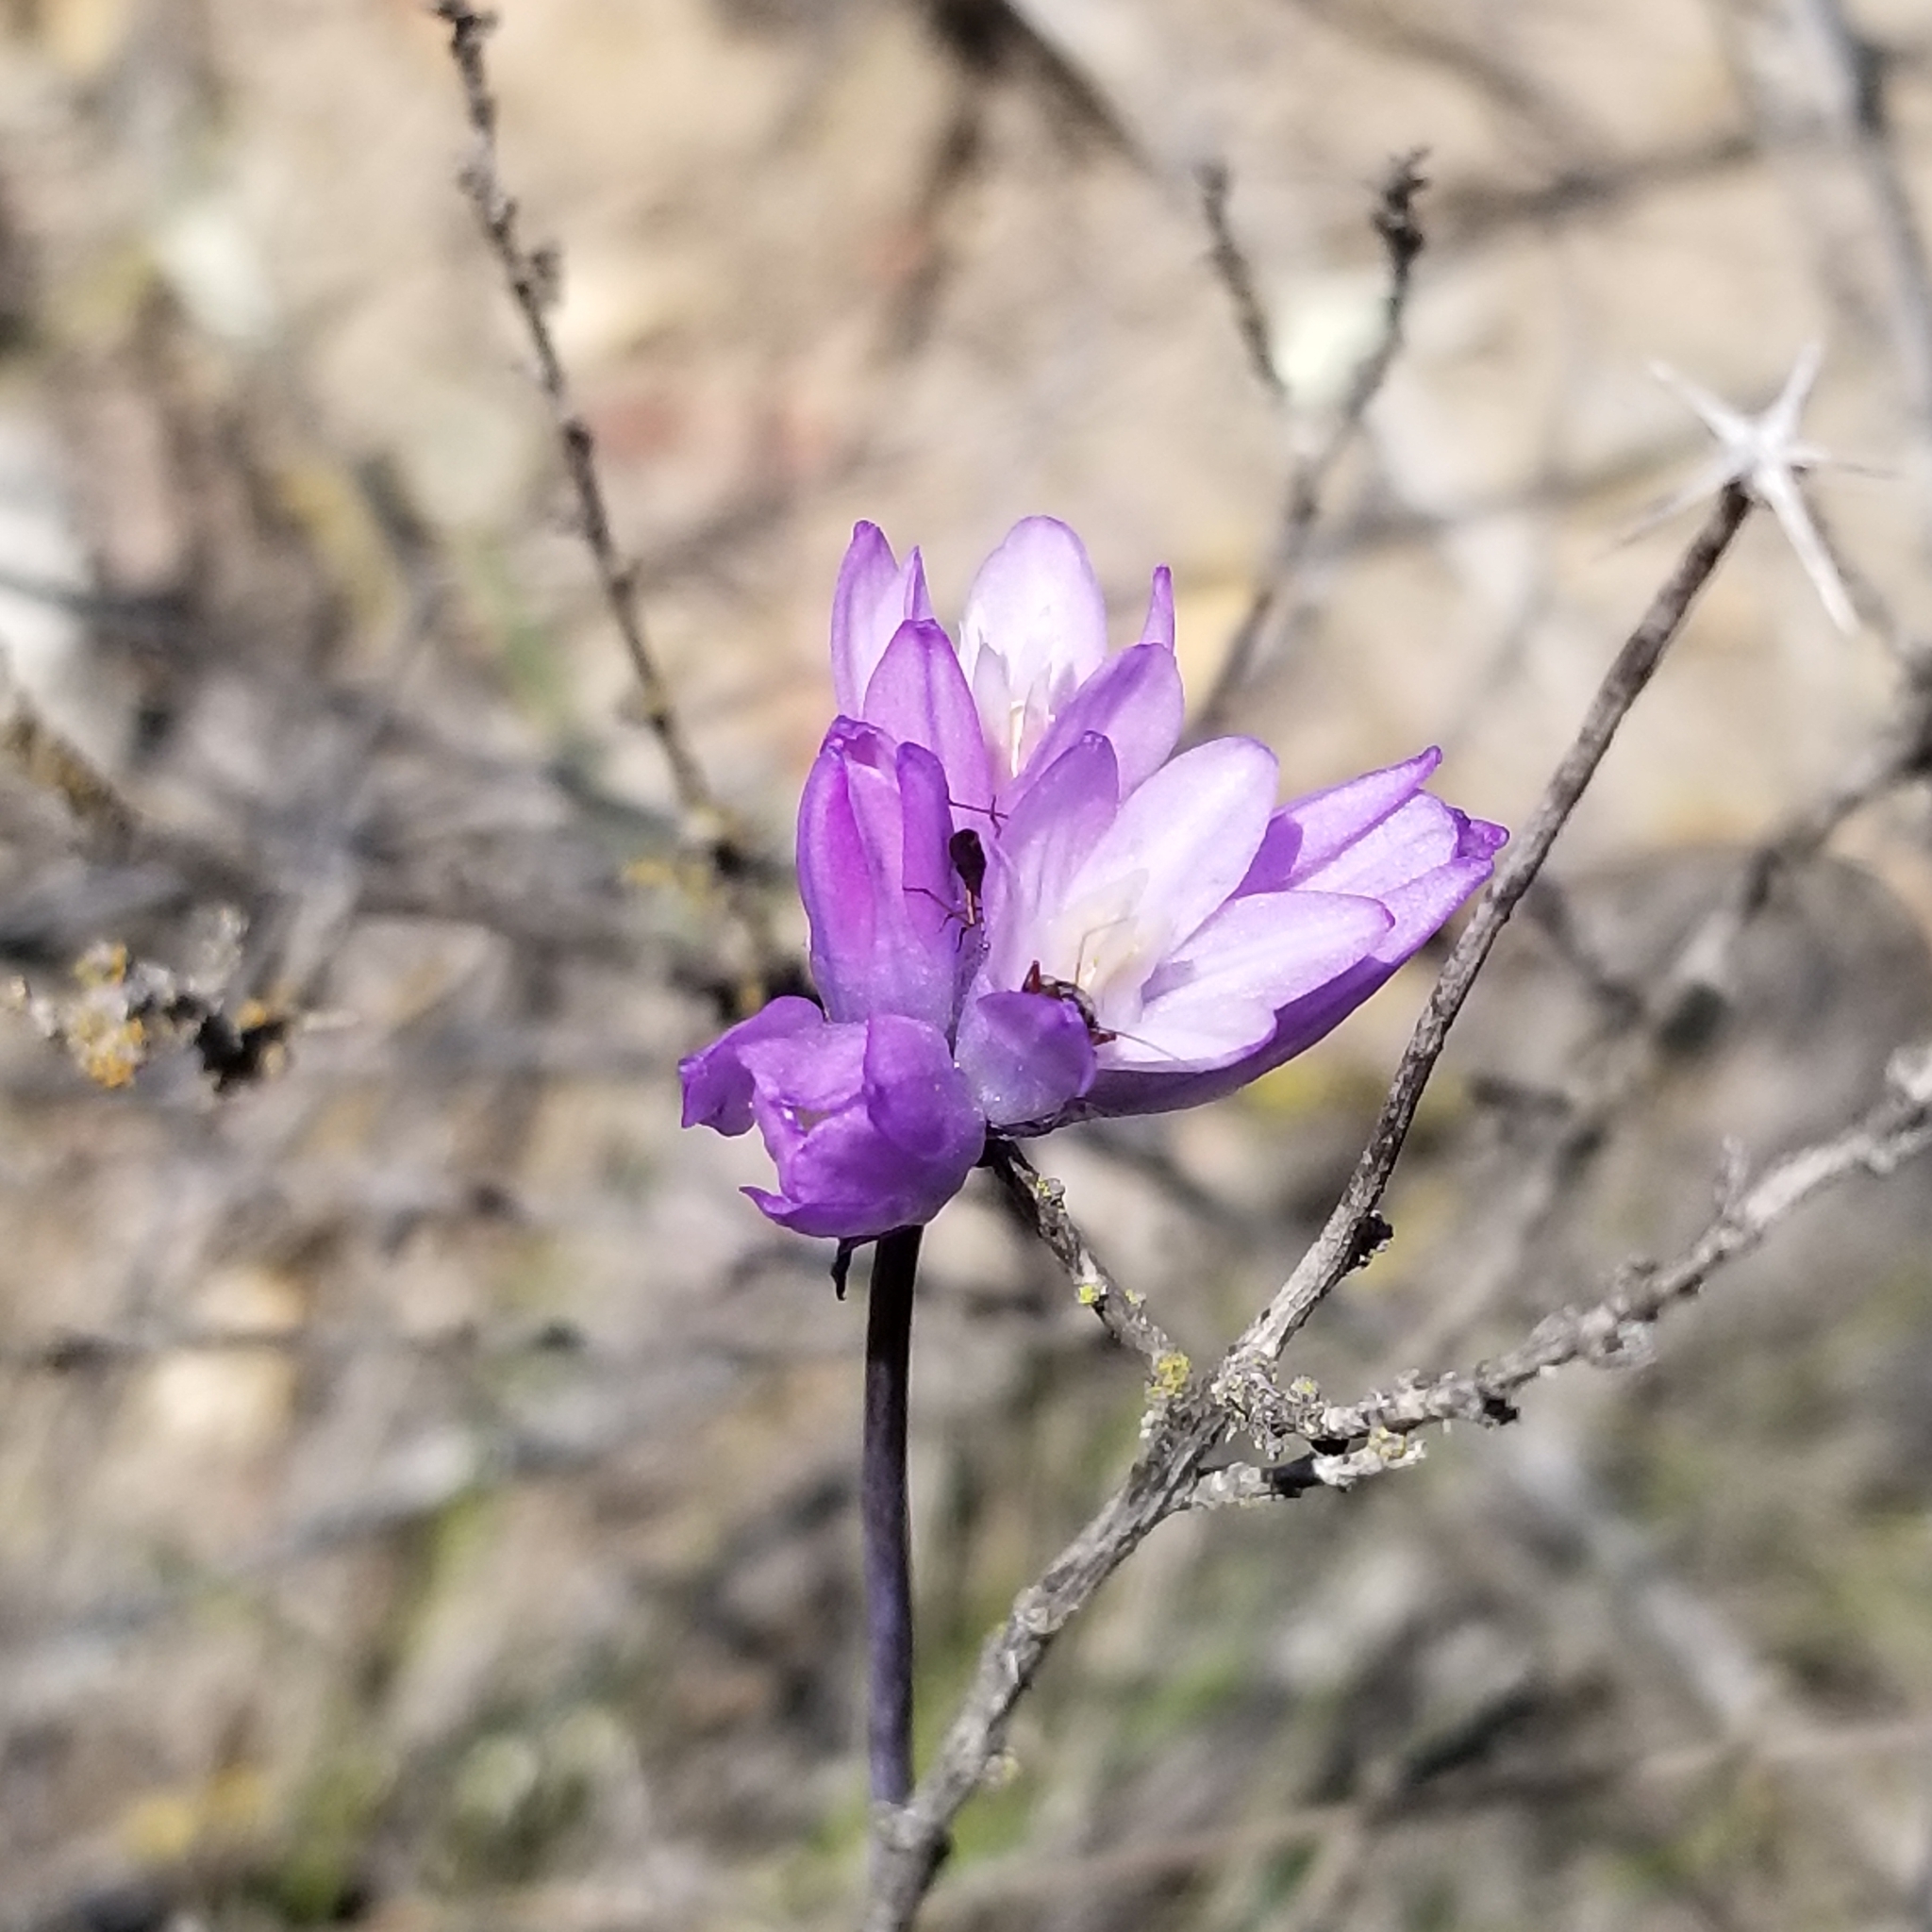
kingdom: Plantae
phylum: Tracheophyta
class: Liliopsida
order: Asparagales
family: Asparagaceae
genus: Dipterostemon
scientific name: Dipterostemon capitatus
